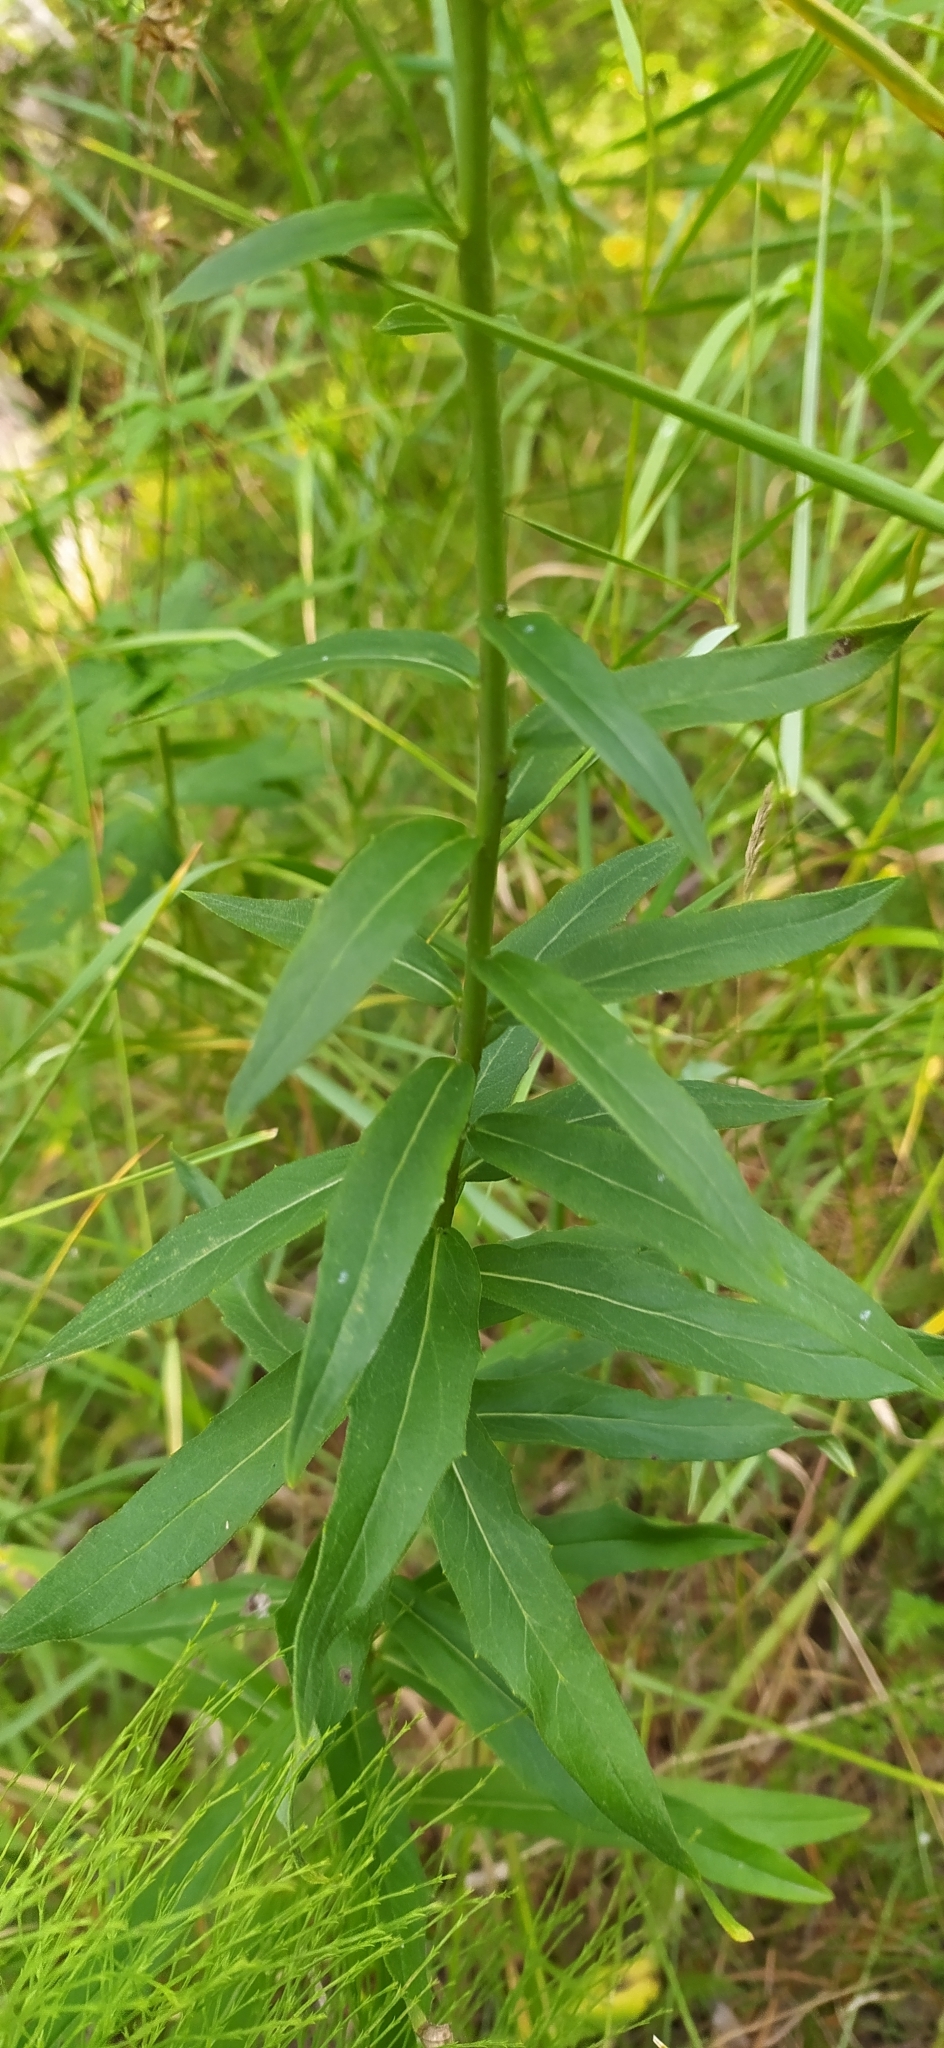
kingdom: Plantae
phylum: Tracheophyta
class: Magnoliopsida
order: Asterales
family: Asteraceae
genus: Hieracium
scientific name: Hieracium umbellatum
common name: Northern hawkweed
